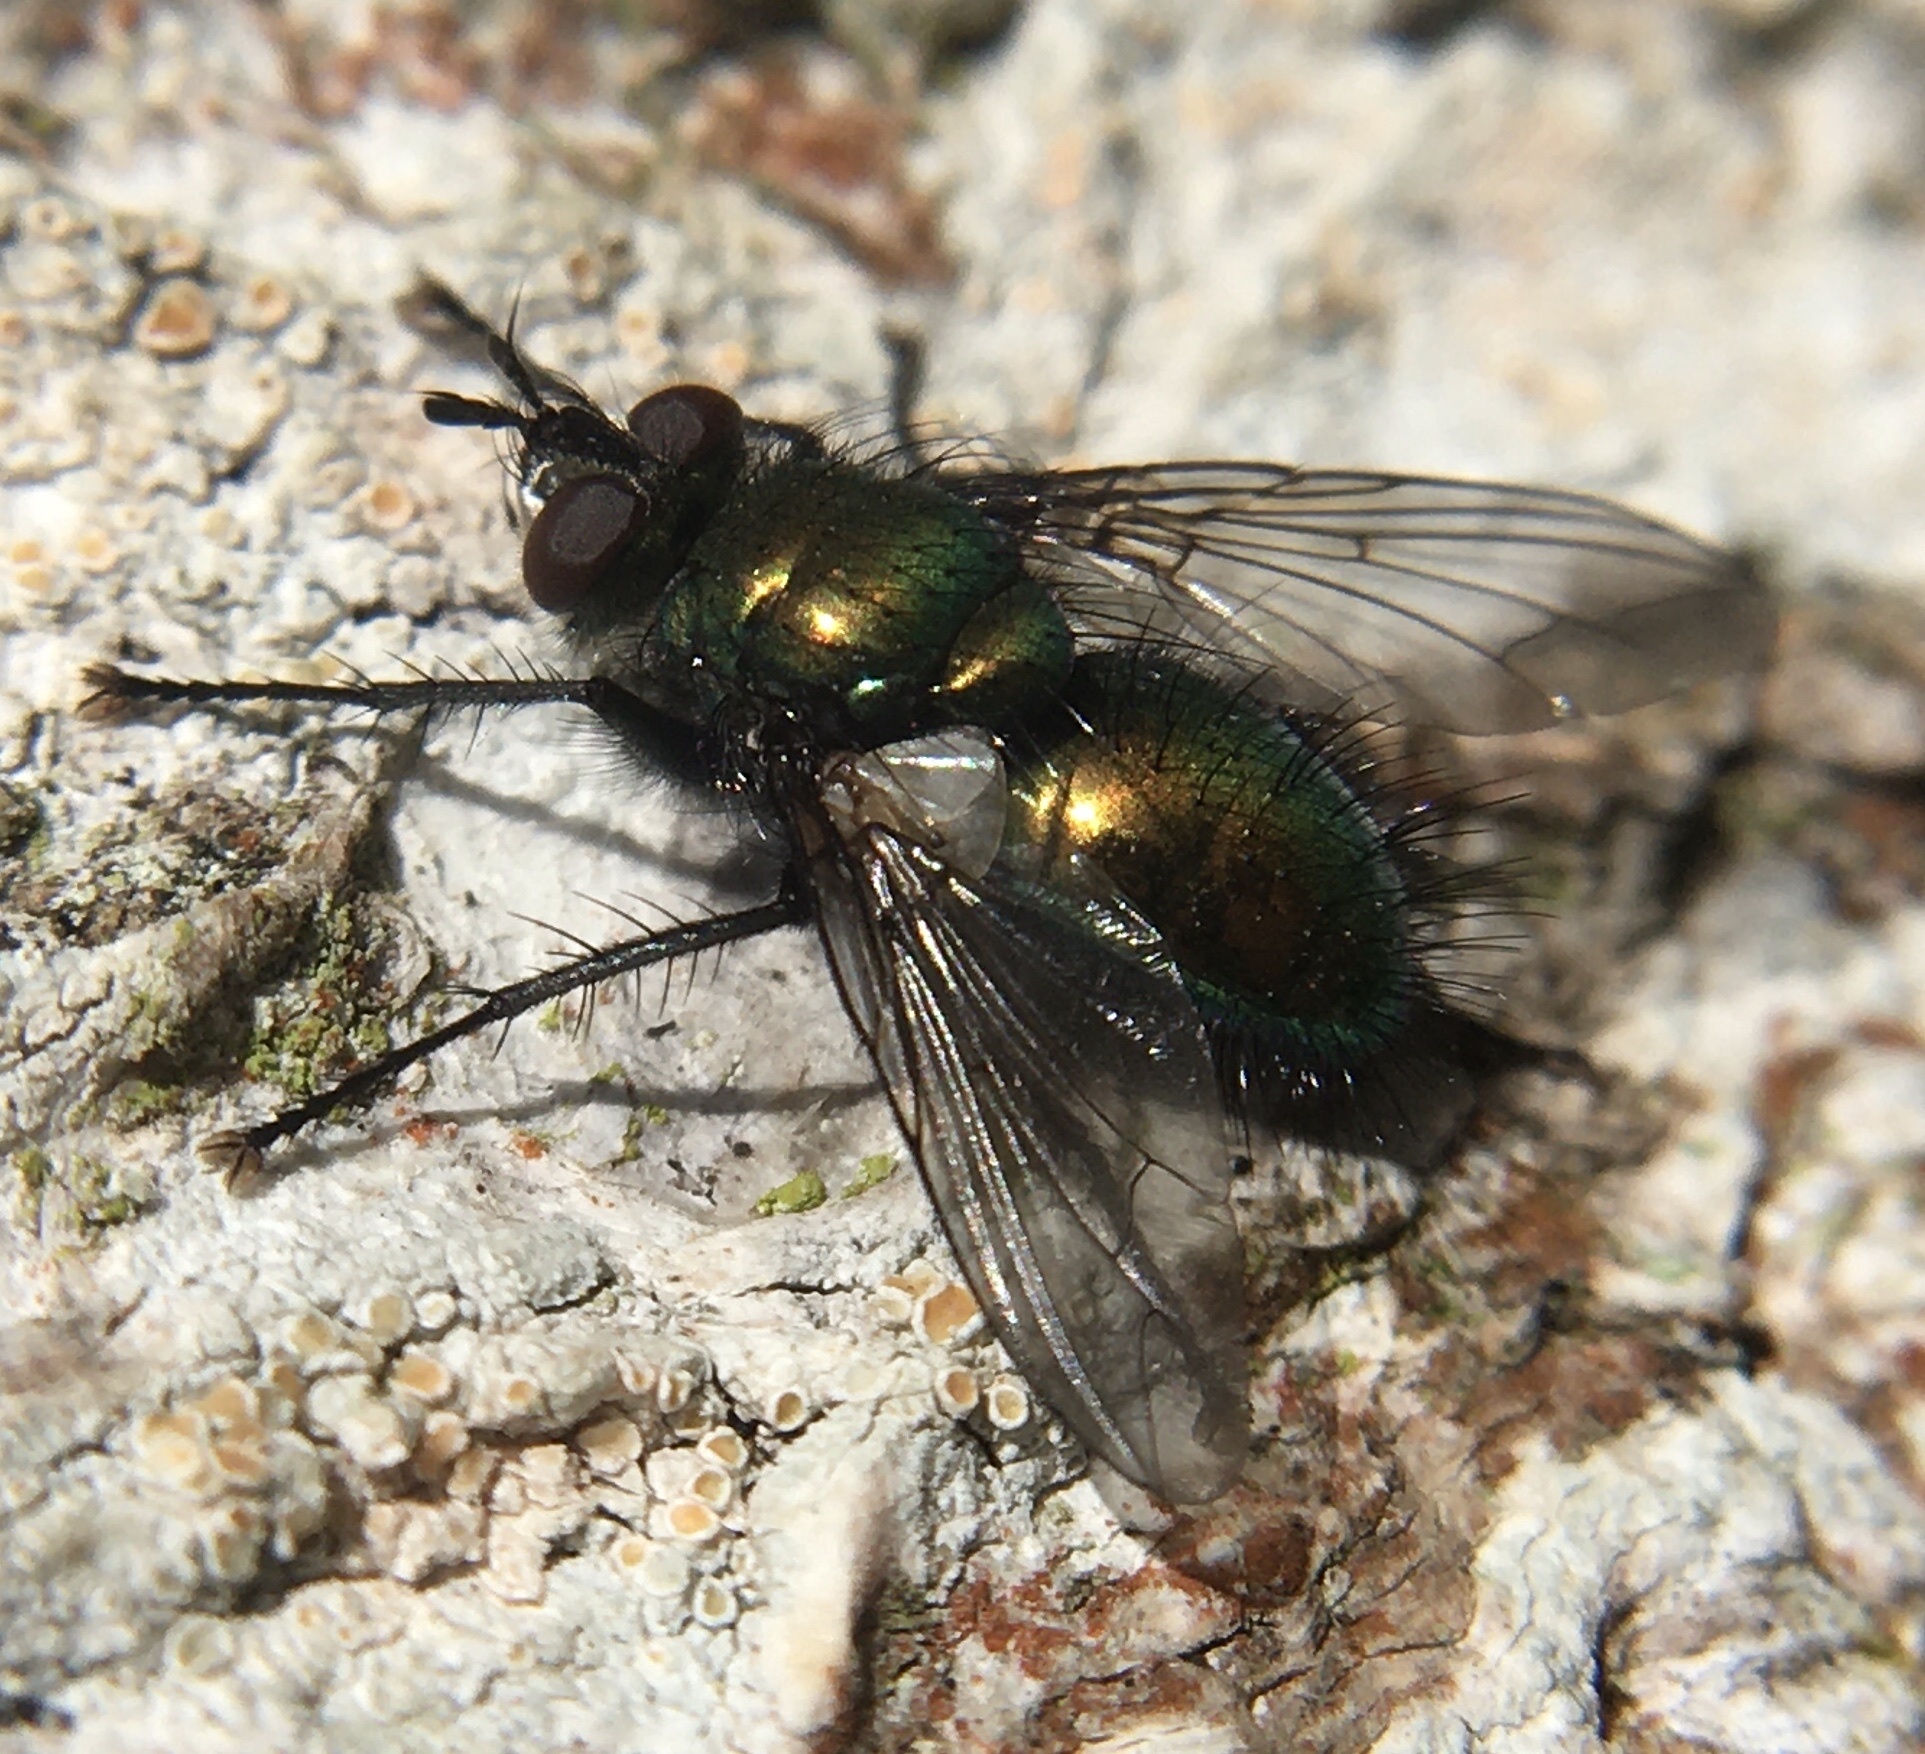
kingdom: Animalia
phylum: Arthropoda
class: Insecta
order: Diptera
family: Tachinidae
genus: Gymnocheta
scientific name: Gymnocheta viridis
